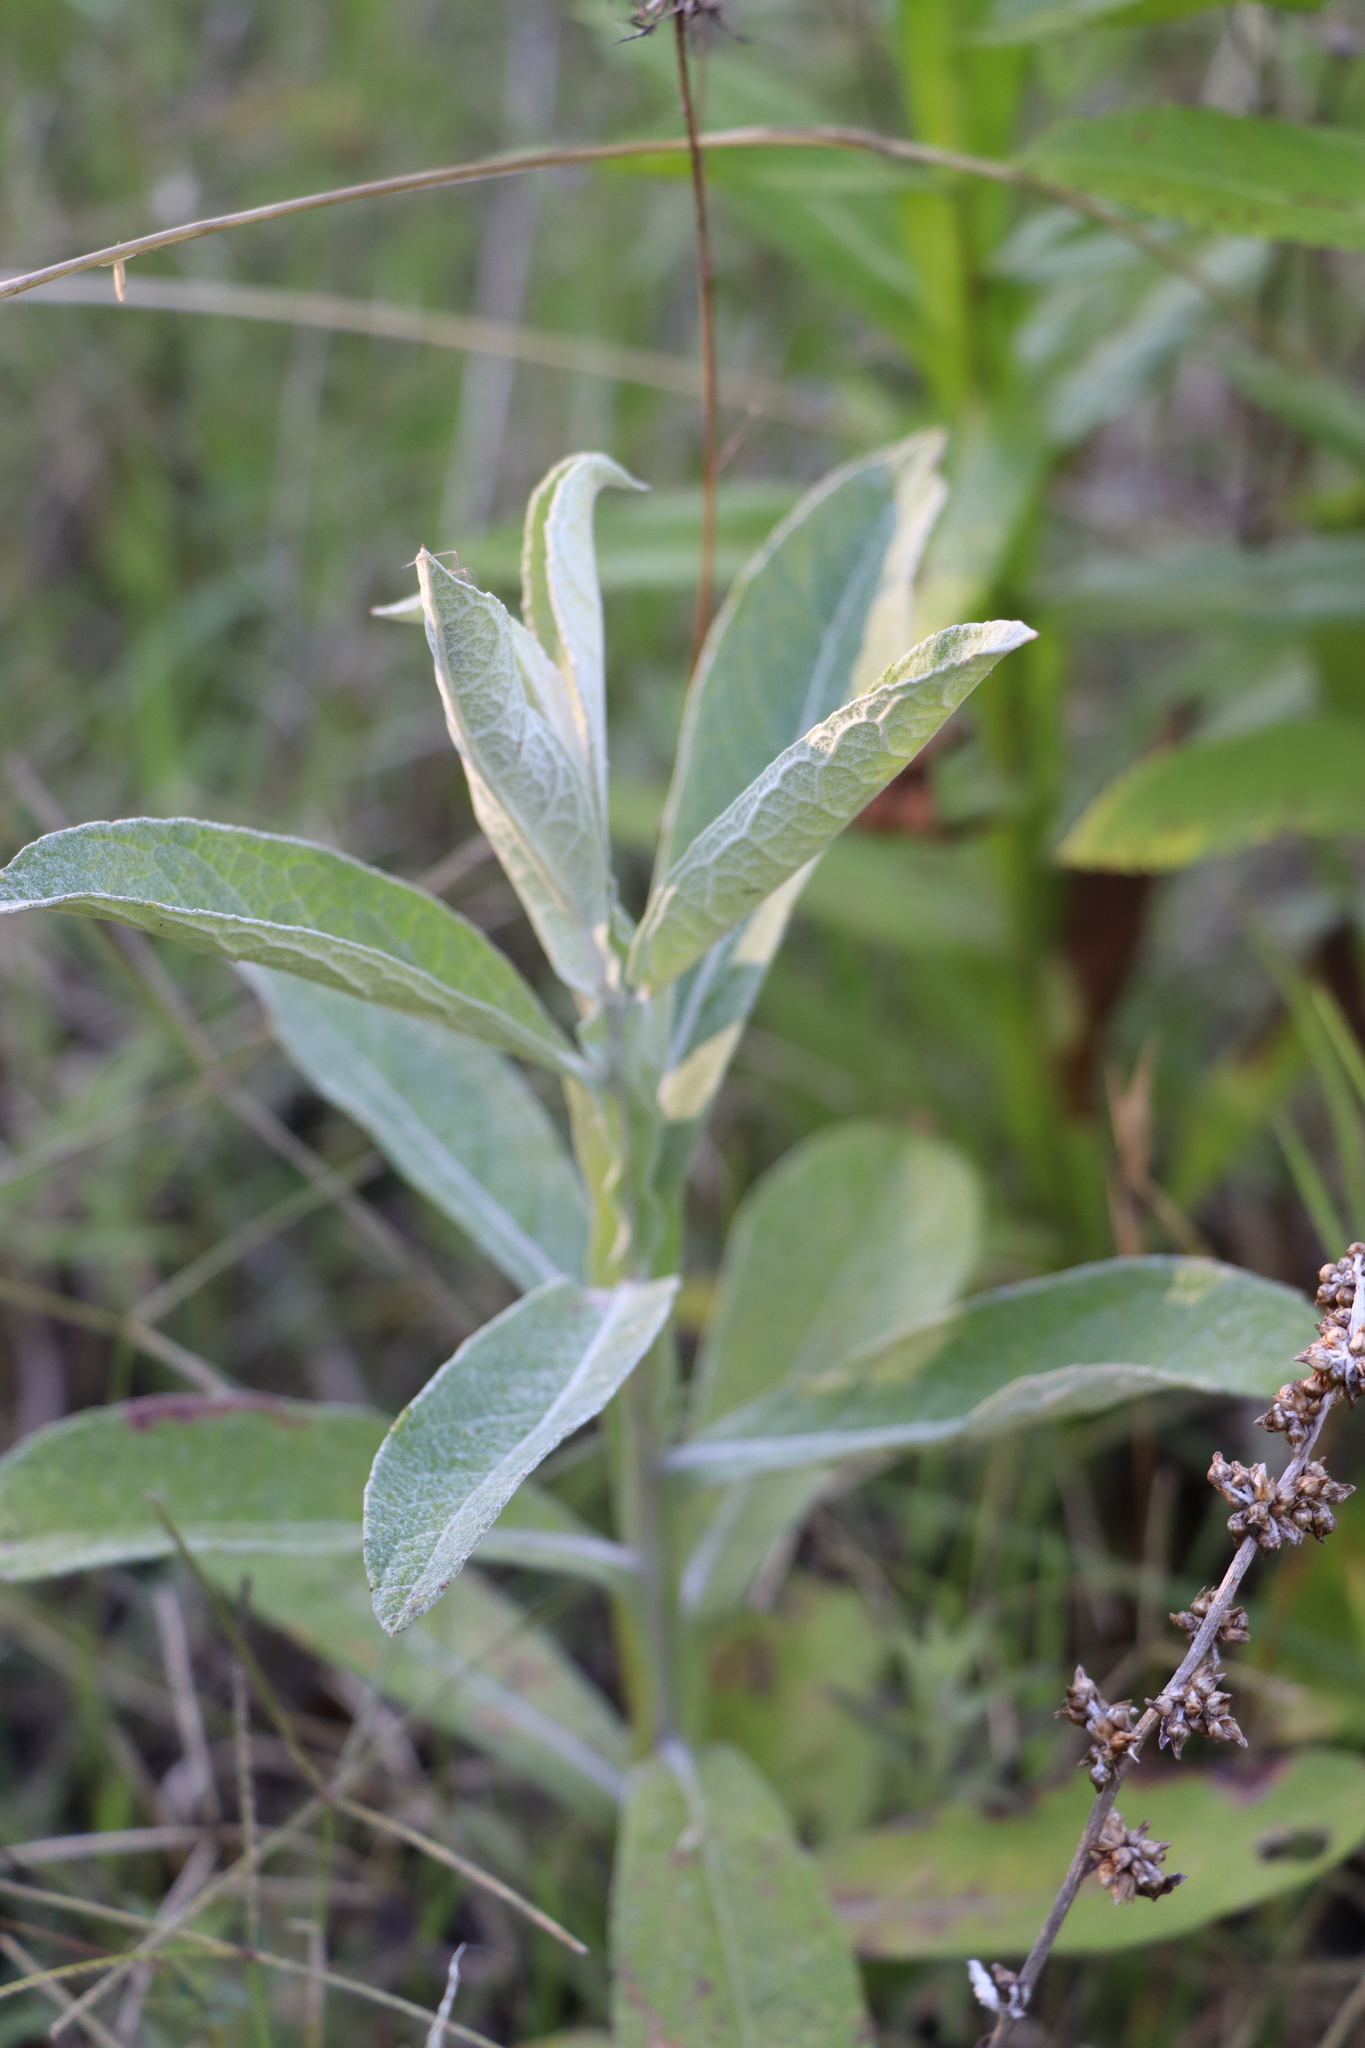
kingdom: Plantae
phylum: Tracheophyta
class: Magnoliopsida
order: Asterales
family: Asteraceae
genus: Pterocaulon
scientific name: Pterocaulon balansae
